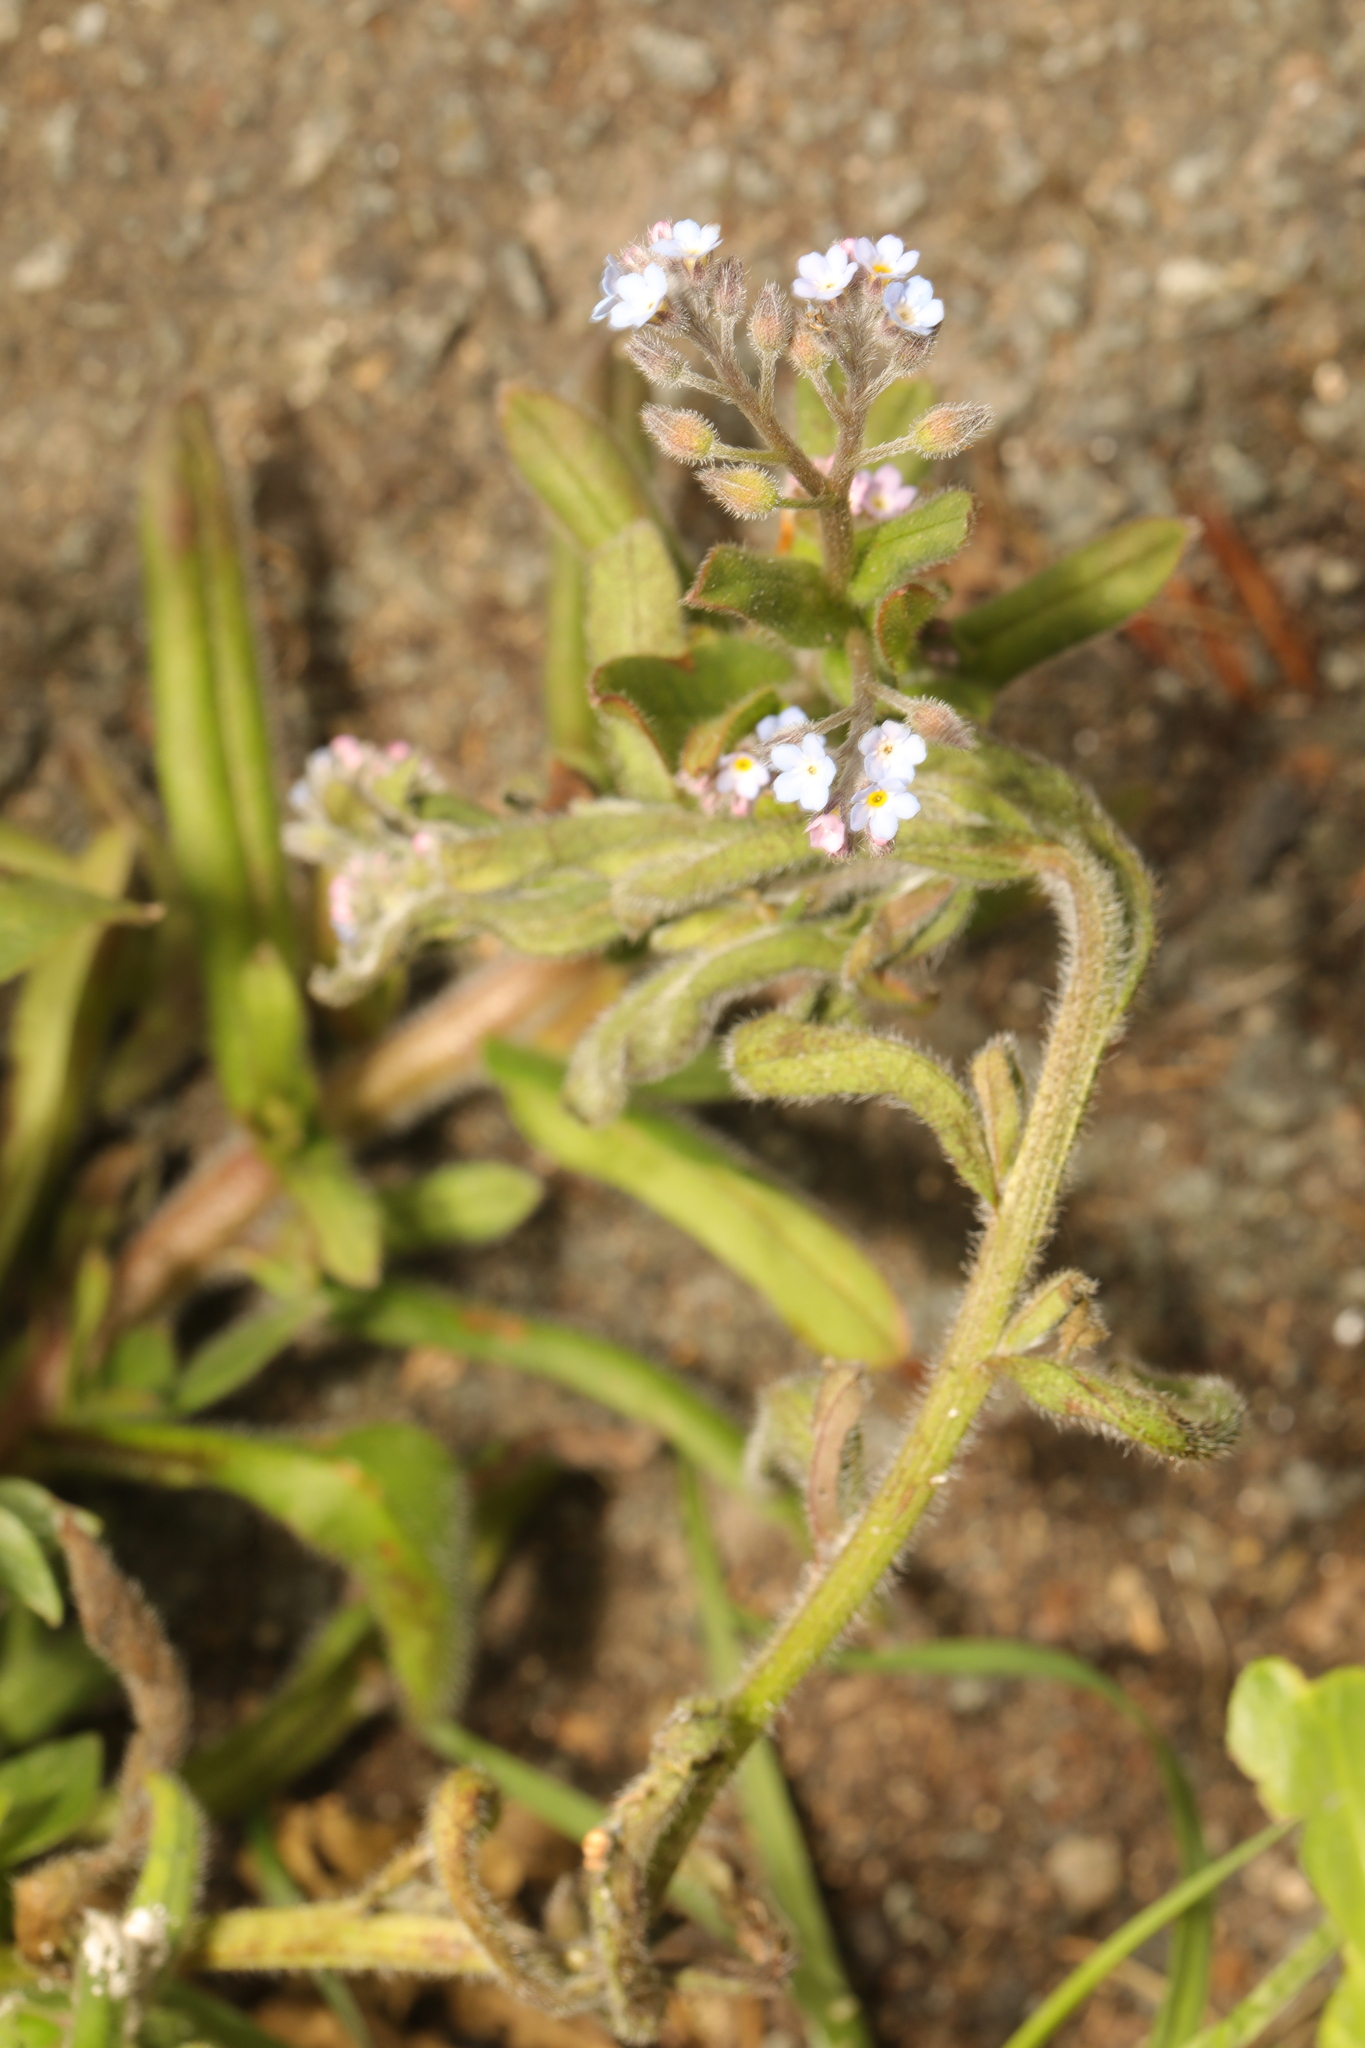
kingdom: Plantae
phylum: Tracheophyta
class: Magnoliopsida
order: Boraginales
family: Boraginaceae
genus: Myosotis
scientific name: Myosotis arvensis
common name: Field forget-me-not
